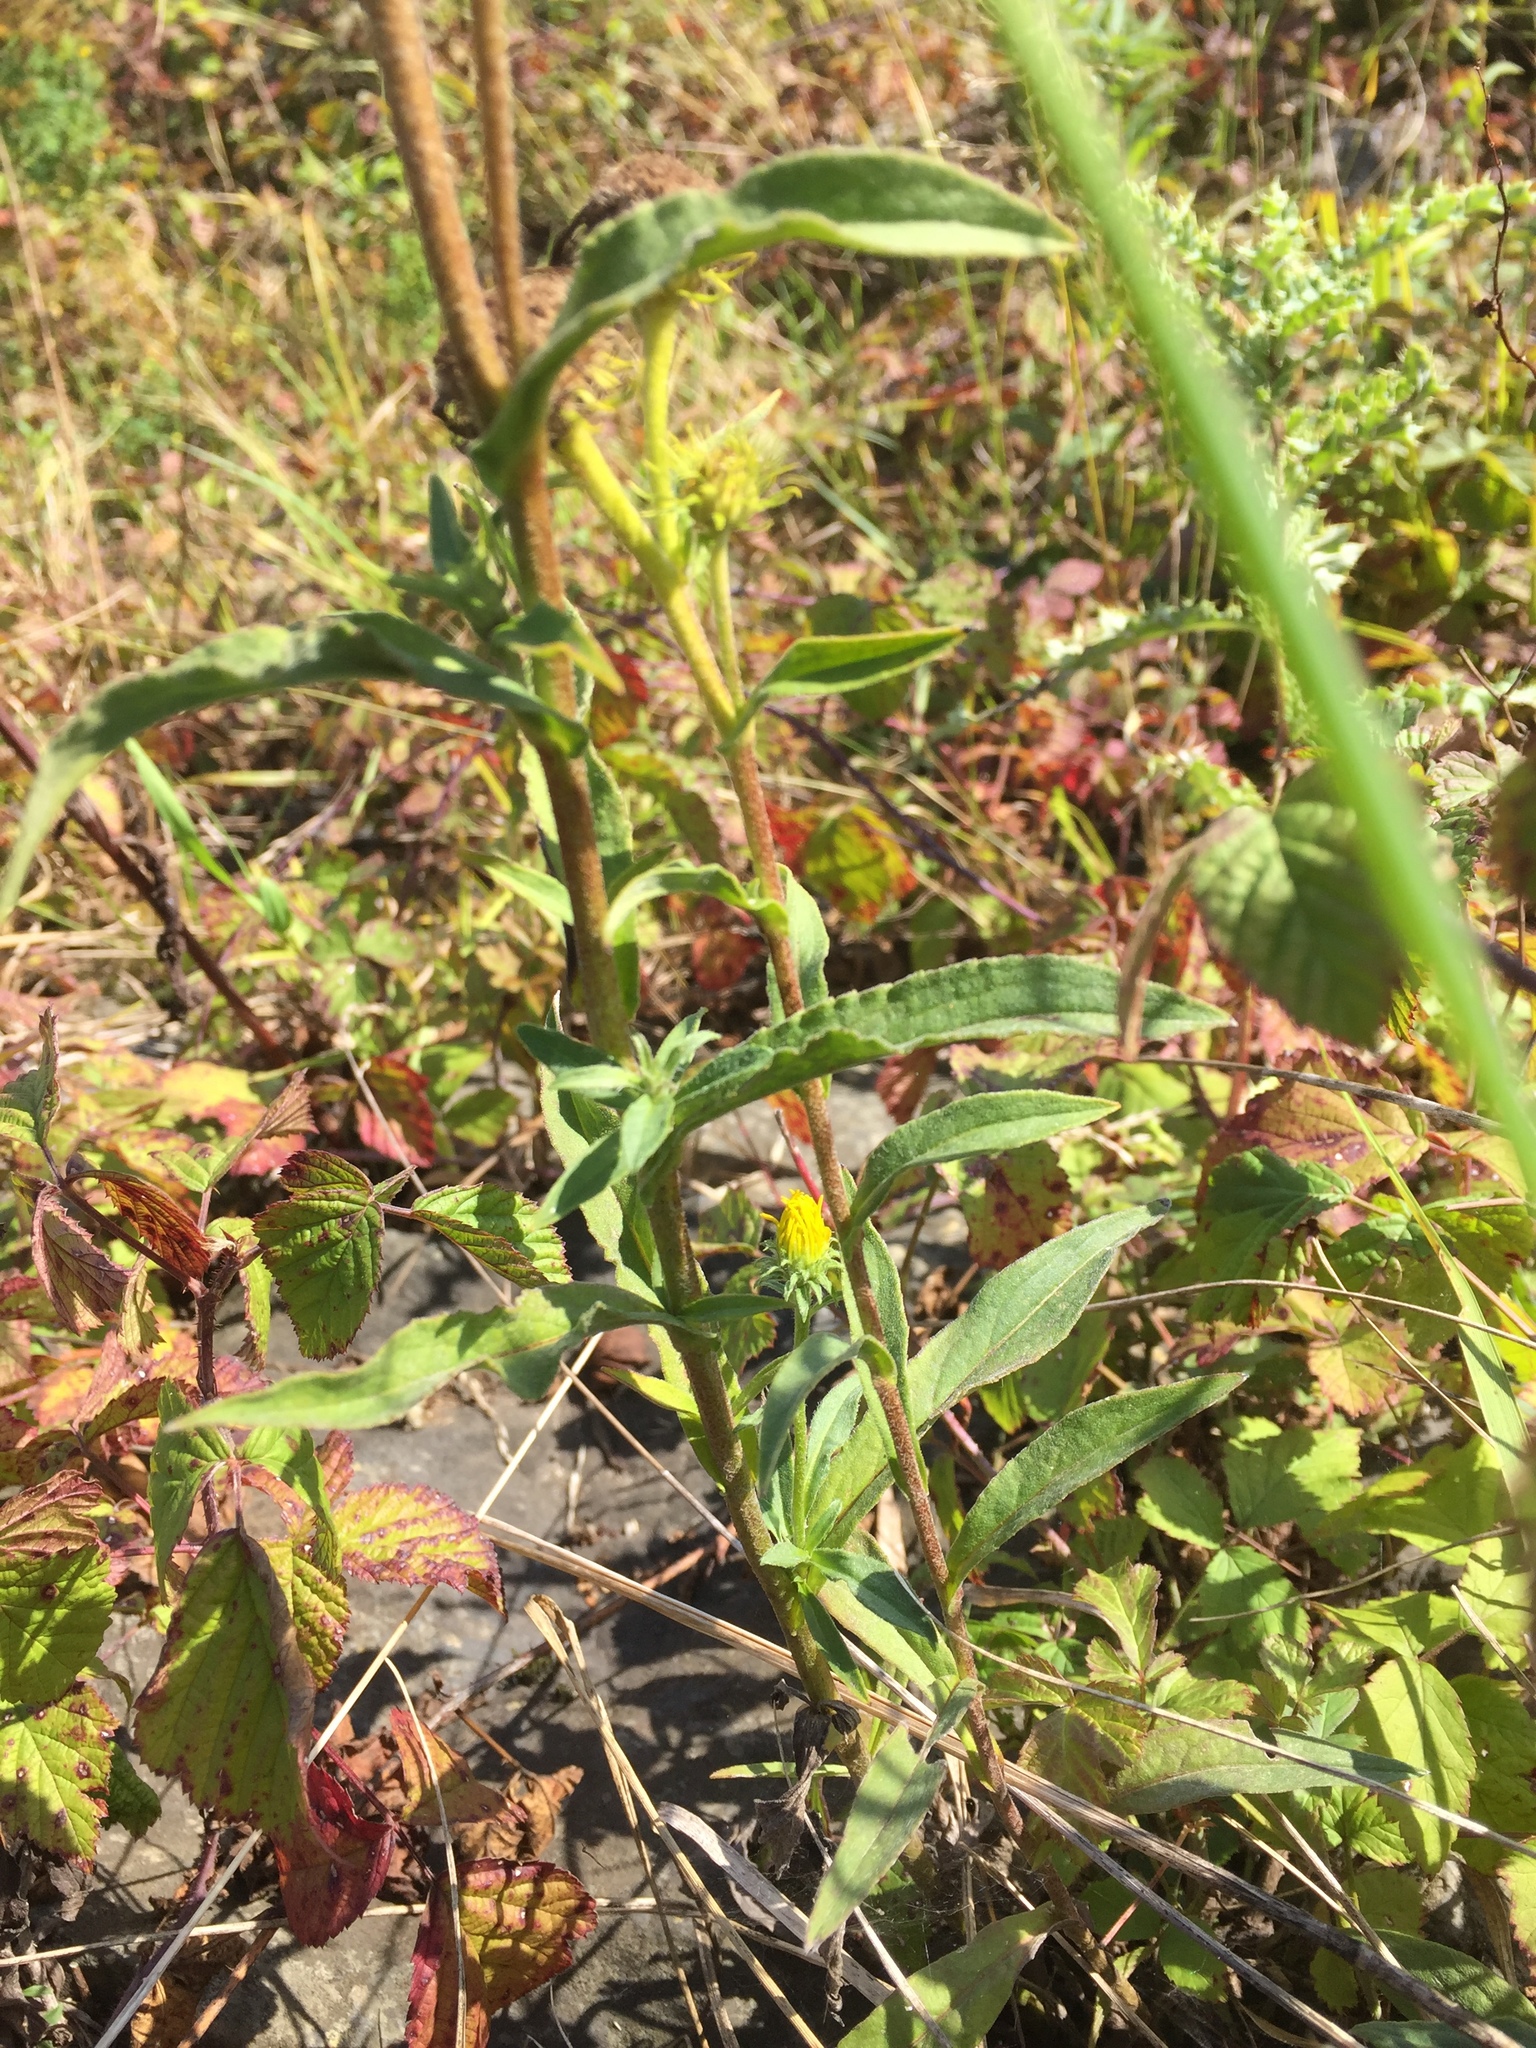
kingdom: Plantae
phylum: Tracheophyta
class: Magnoliopsida
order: Asterales
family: Asteraceae
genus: Pentanema
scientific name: Pentanema britannicum
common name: British elecampane
